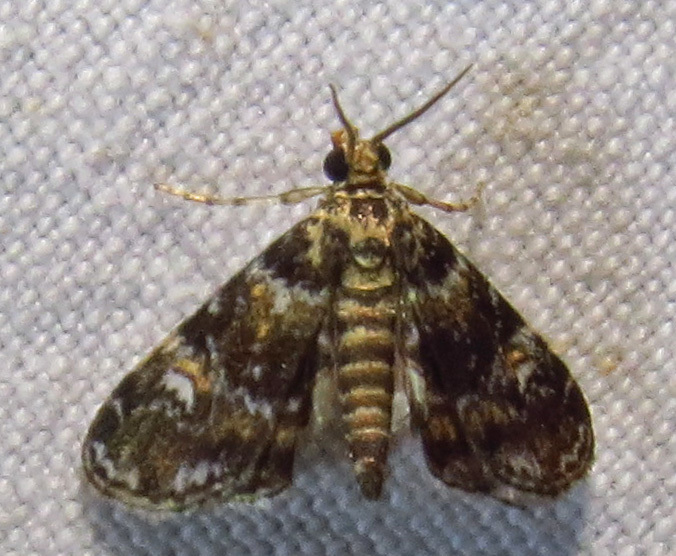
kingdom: Animalia
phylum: Arthropoda
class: Insecta
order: Lepidoptera
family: Crambidae
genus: Elophila
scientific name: Elophila obliteralis
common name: Waterlily leafcutter moth
